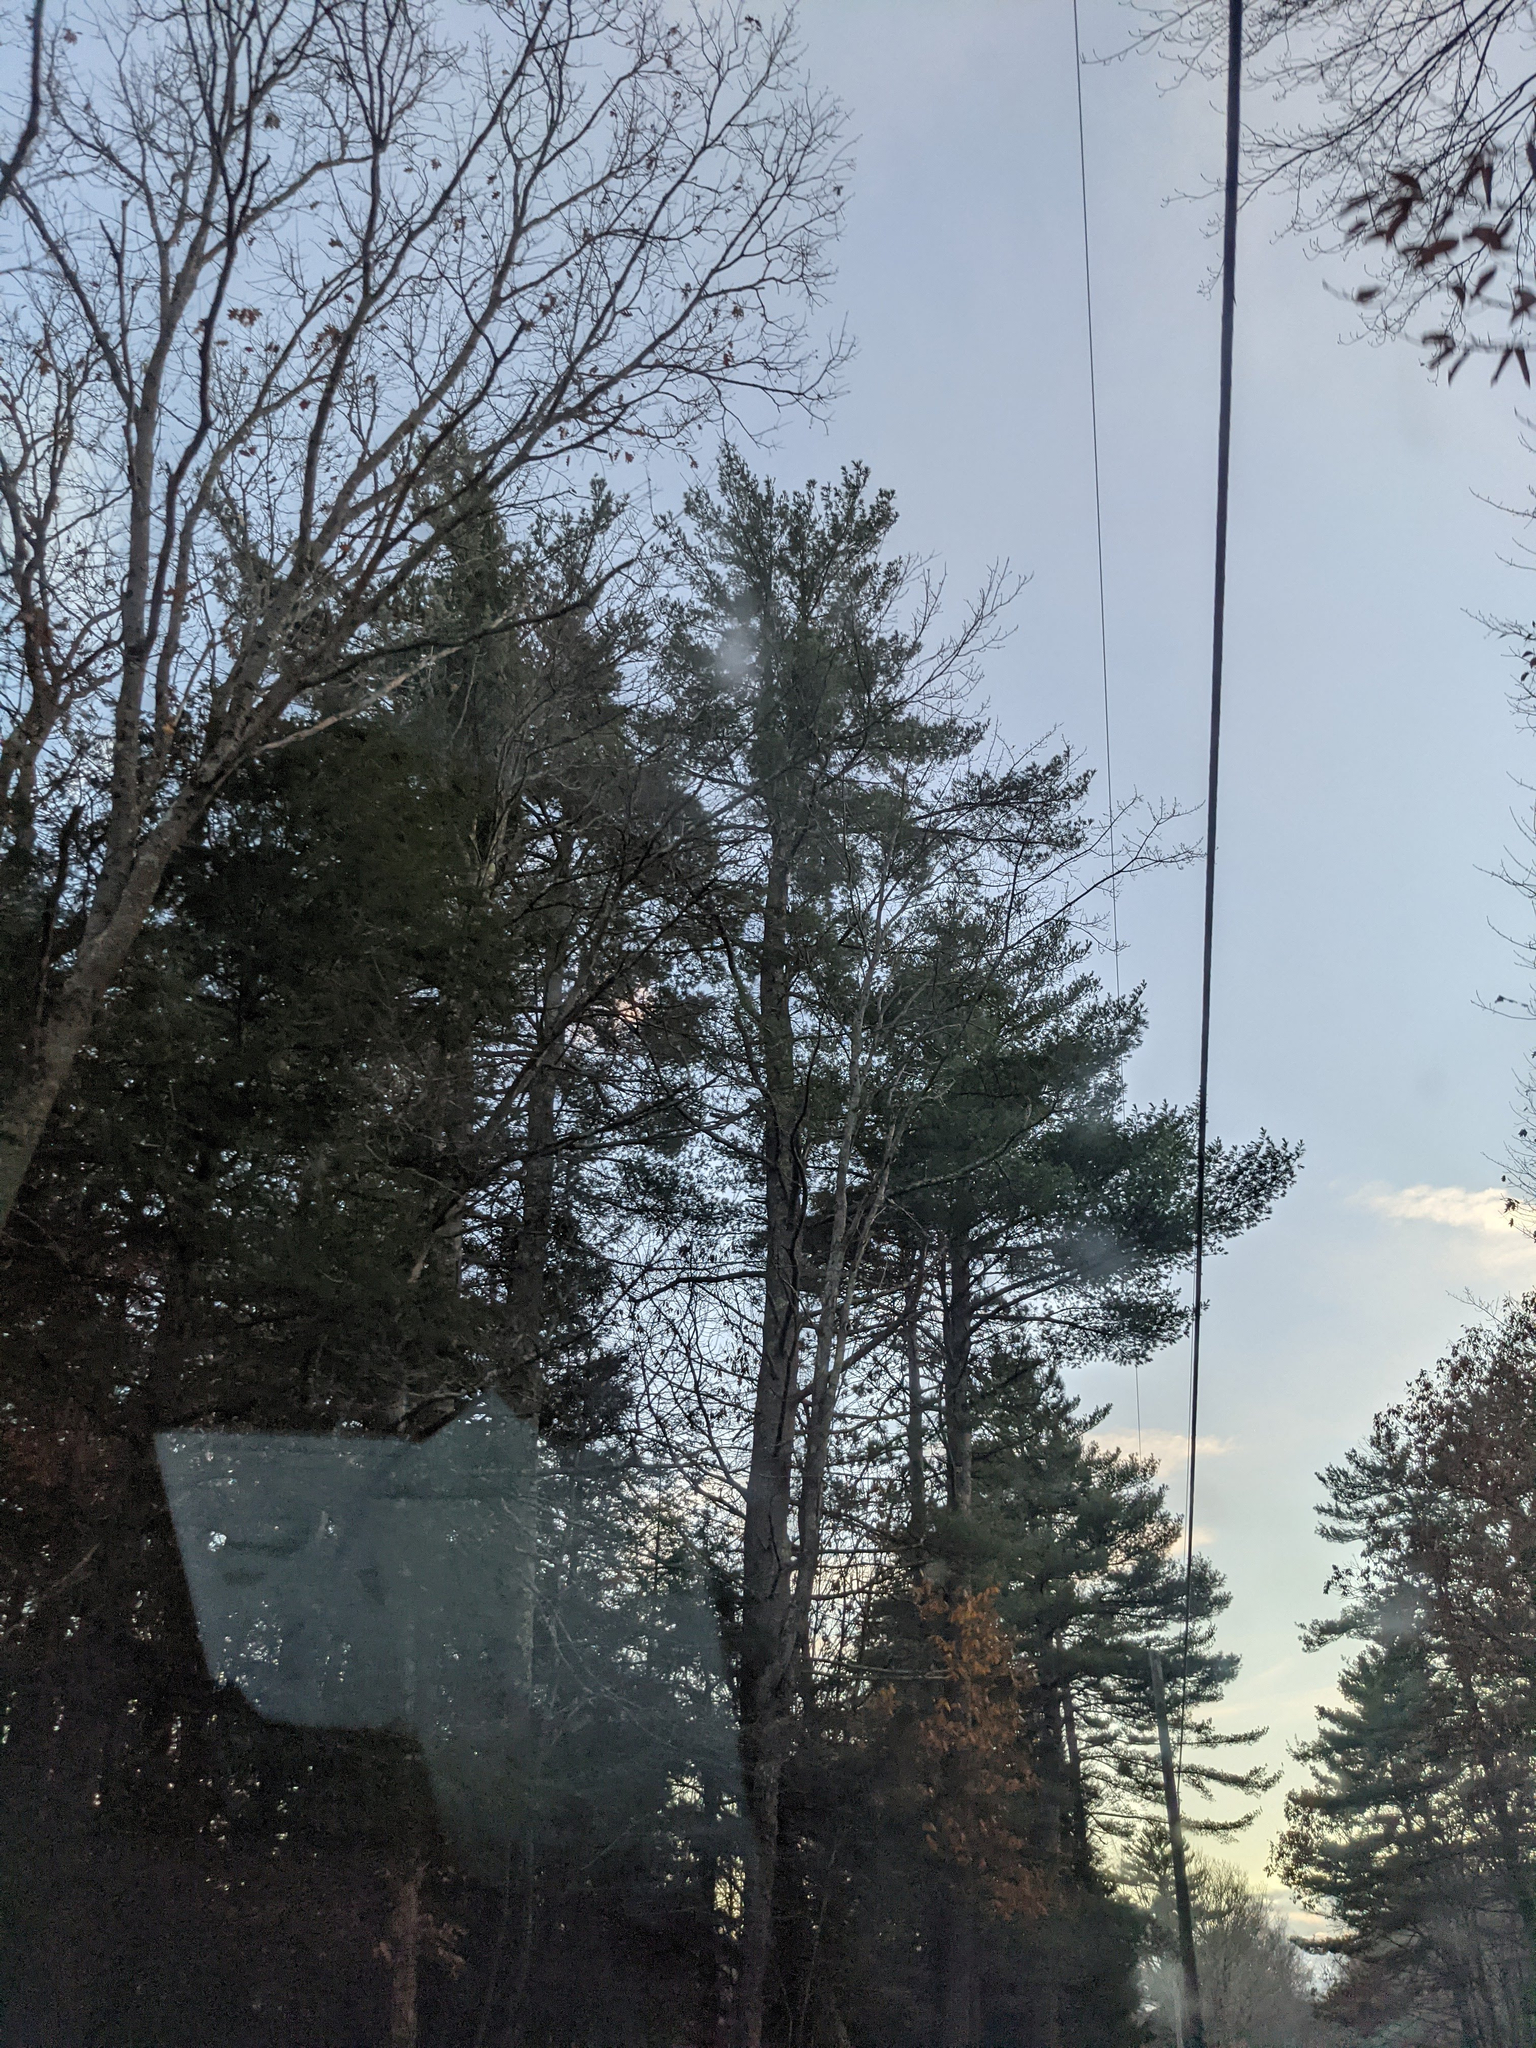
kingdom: Plantae
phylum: Tracheophyta
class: Pinopsida
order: Pinales
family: Pinaceae
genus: Pinus
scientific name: Pinus strobus
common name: Weymouth pine
